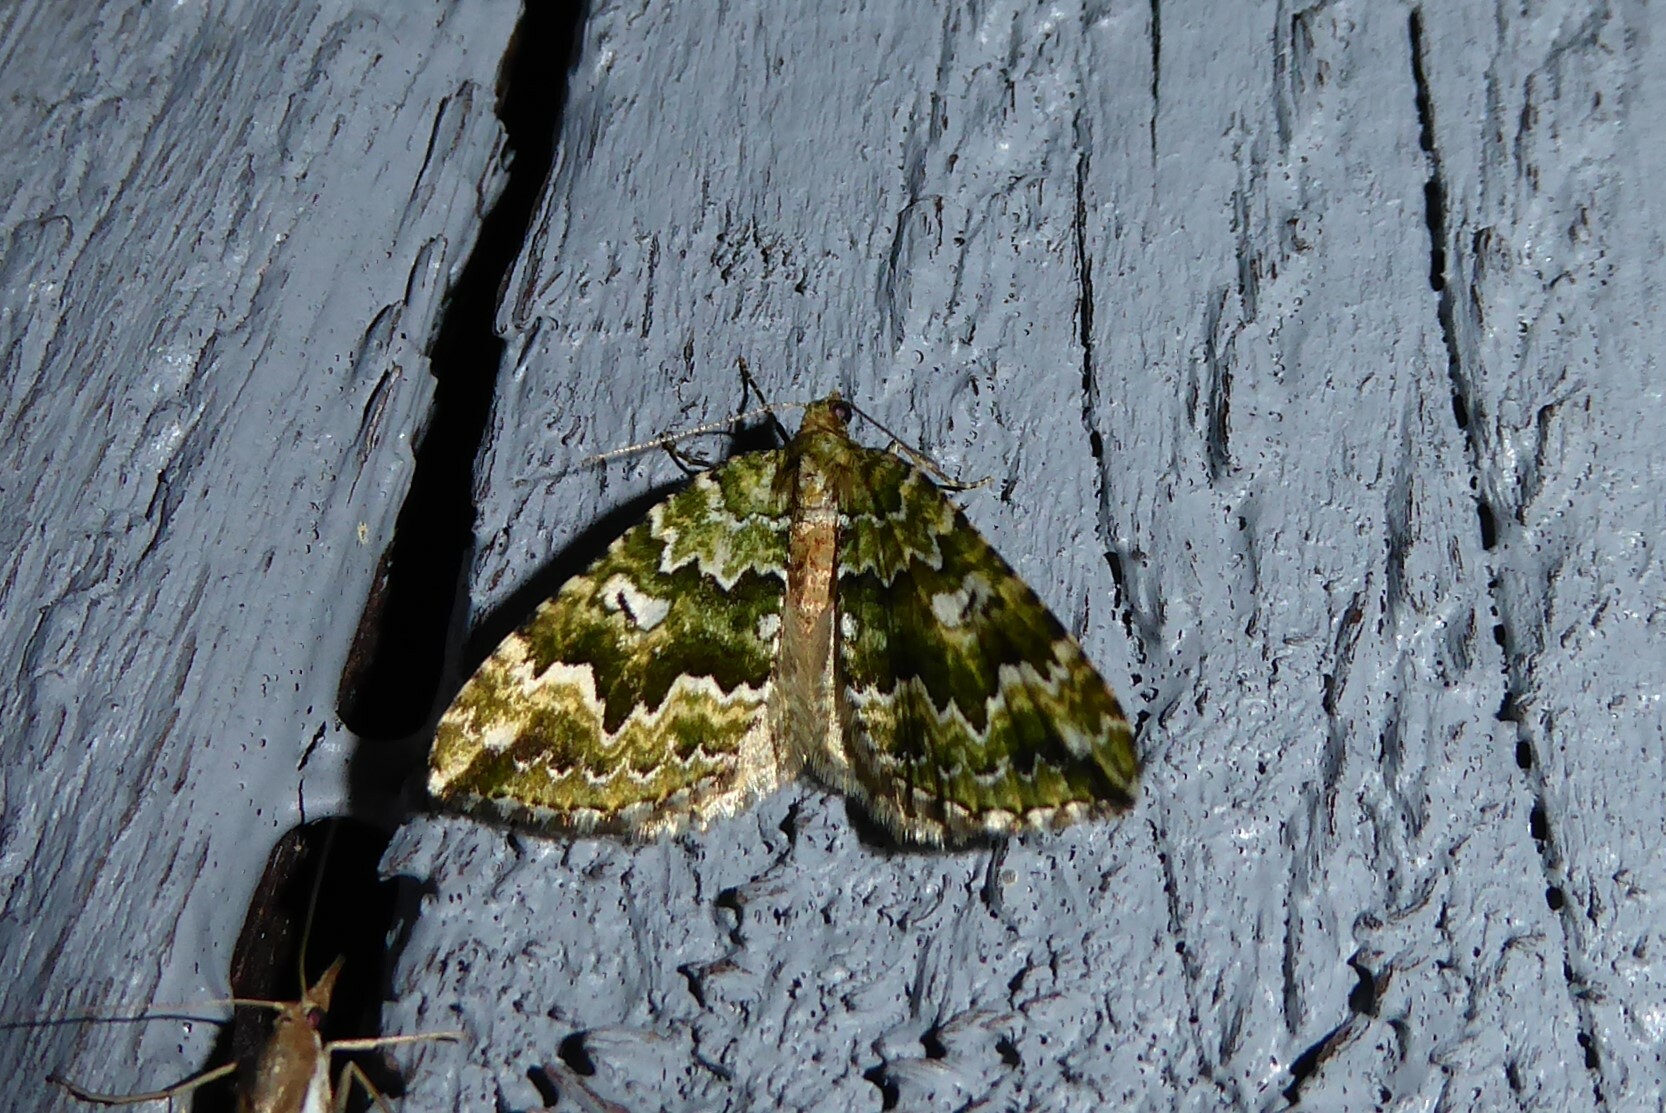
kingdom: Animalia
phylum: Arthropoda
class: Insecta
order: Lepidoptera
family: Geometridae
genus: Asaphodes
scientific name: Asaphodes beata
